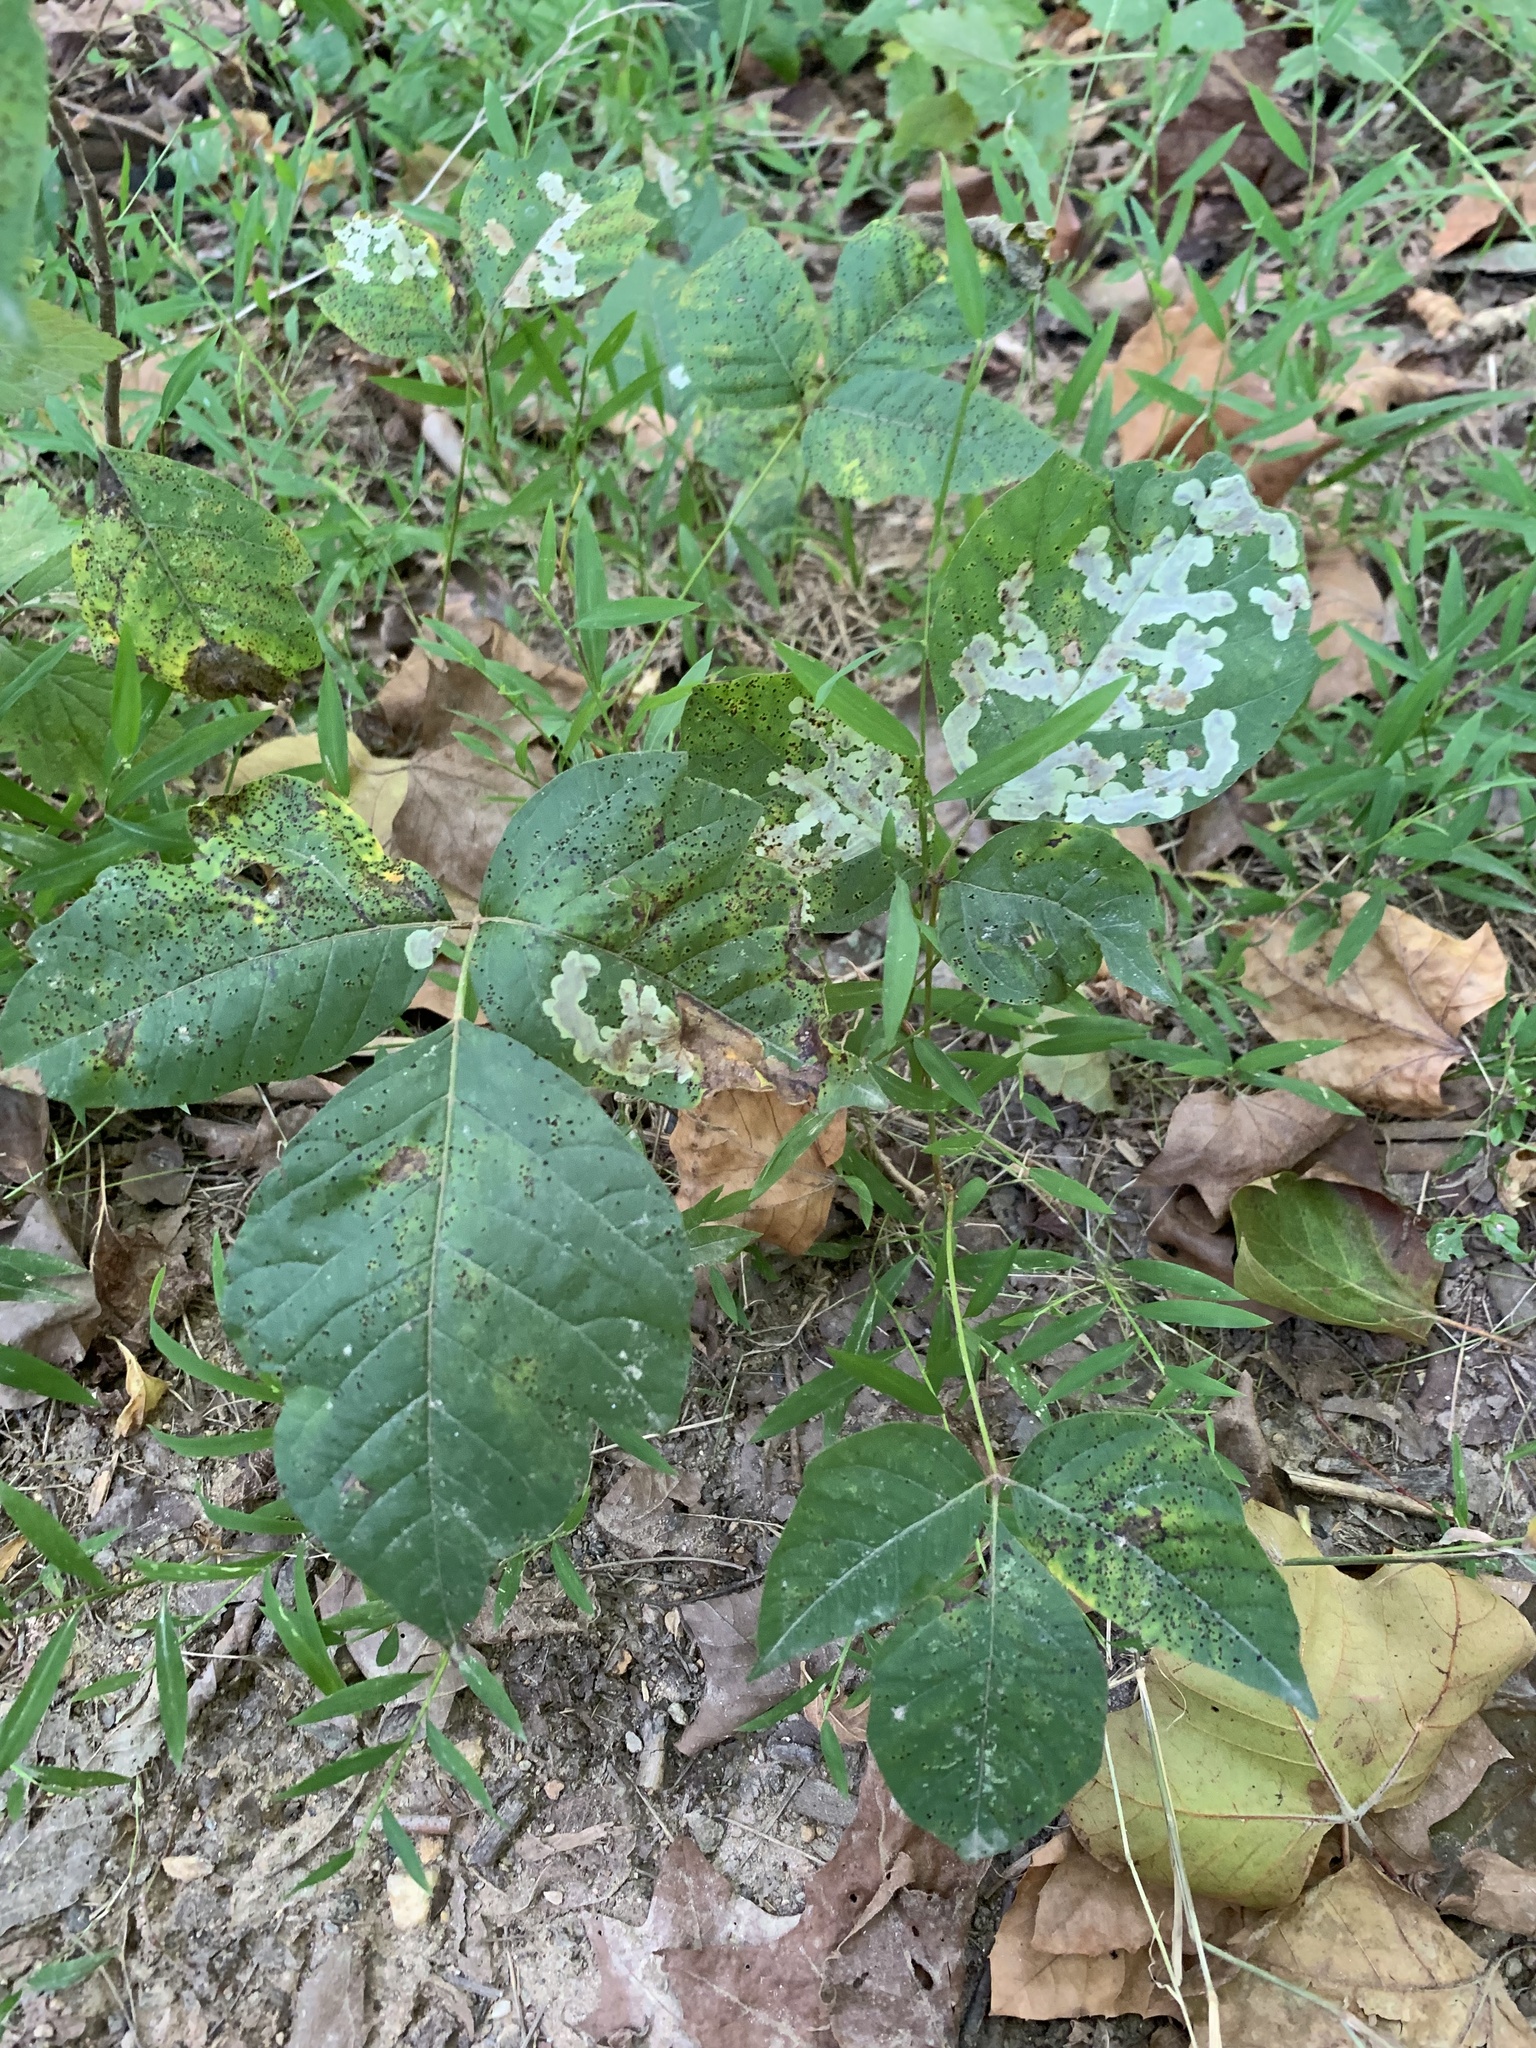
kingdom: Animalia
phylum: Arthropoda
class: Insecta
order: Lepidoptera
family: Gracillariidae
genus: Cameraria
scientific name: Cameraria guttifinitella
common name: Poison ivy leaf-miner moth
